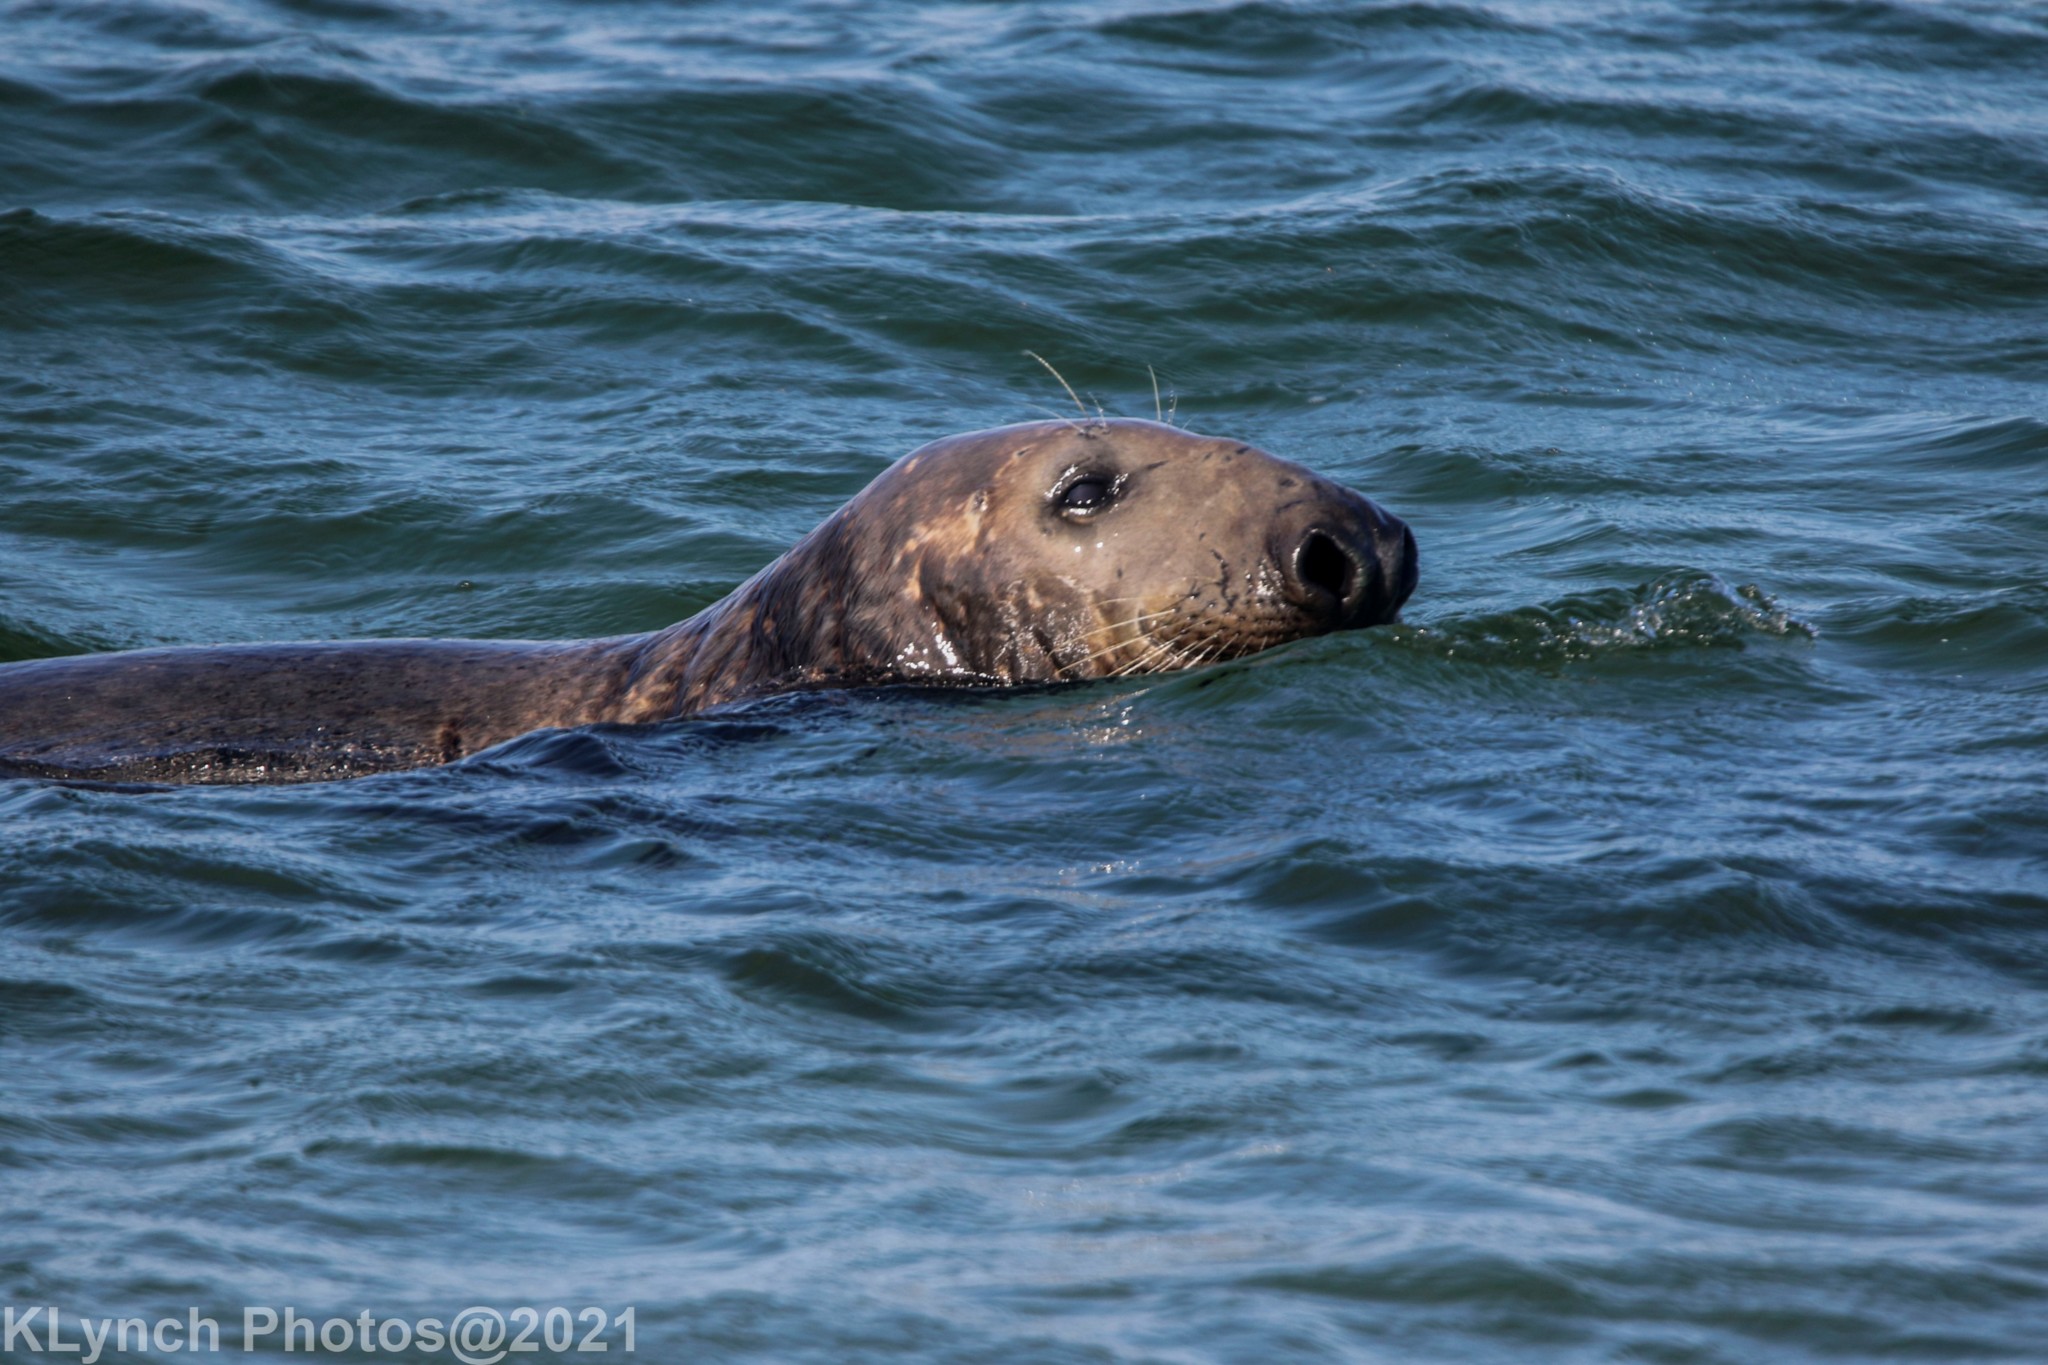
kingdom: Animalia
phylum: Chordata
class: Mammalia
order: Carnivora
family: Phocidae
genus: Halichoerus
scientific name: Halichoerus grypus
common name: Grey seal
